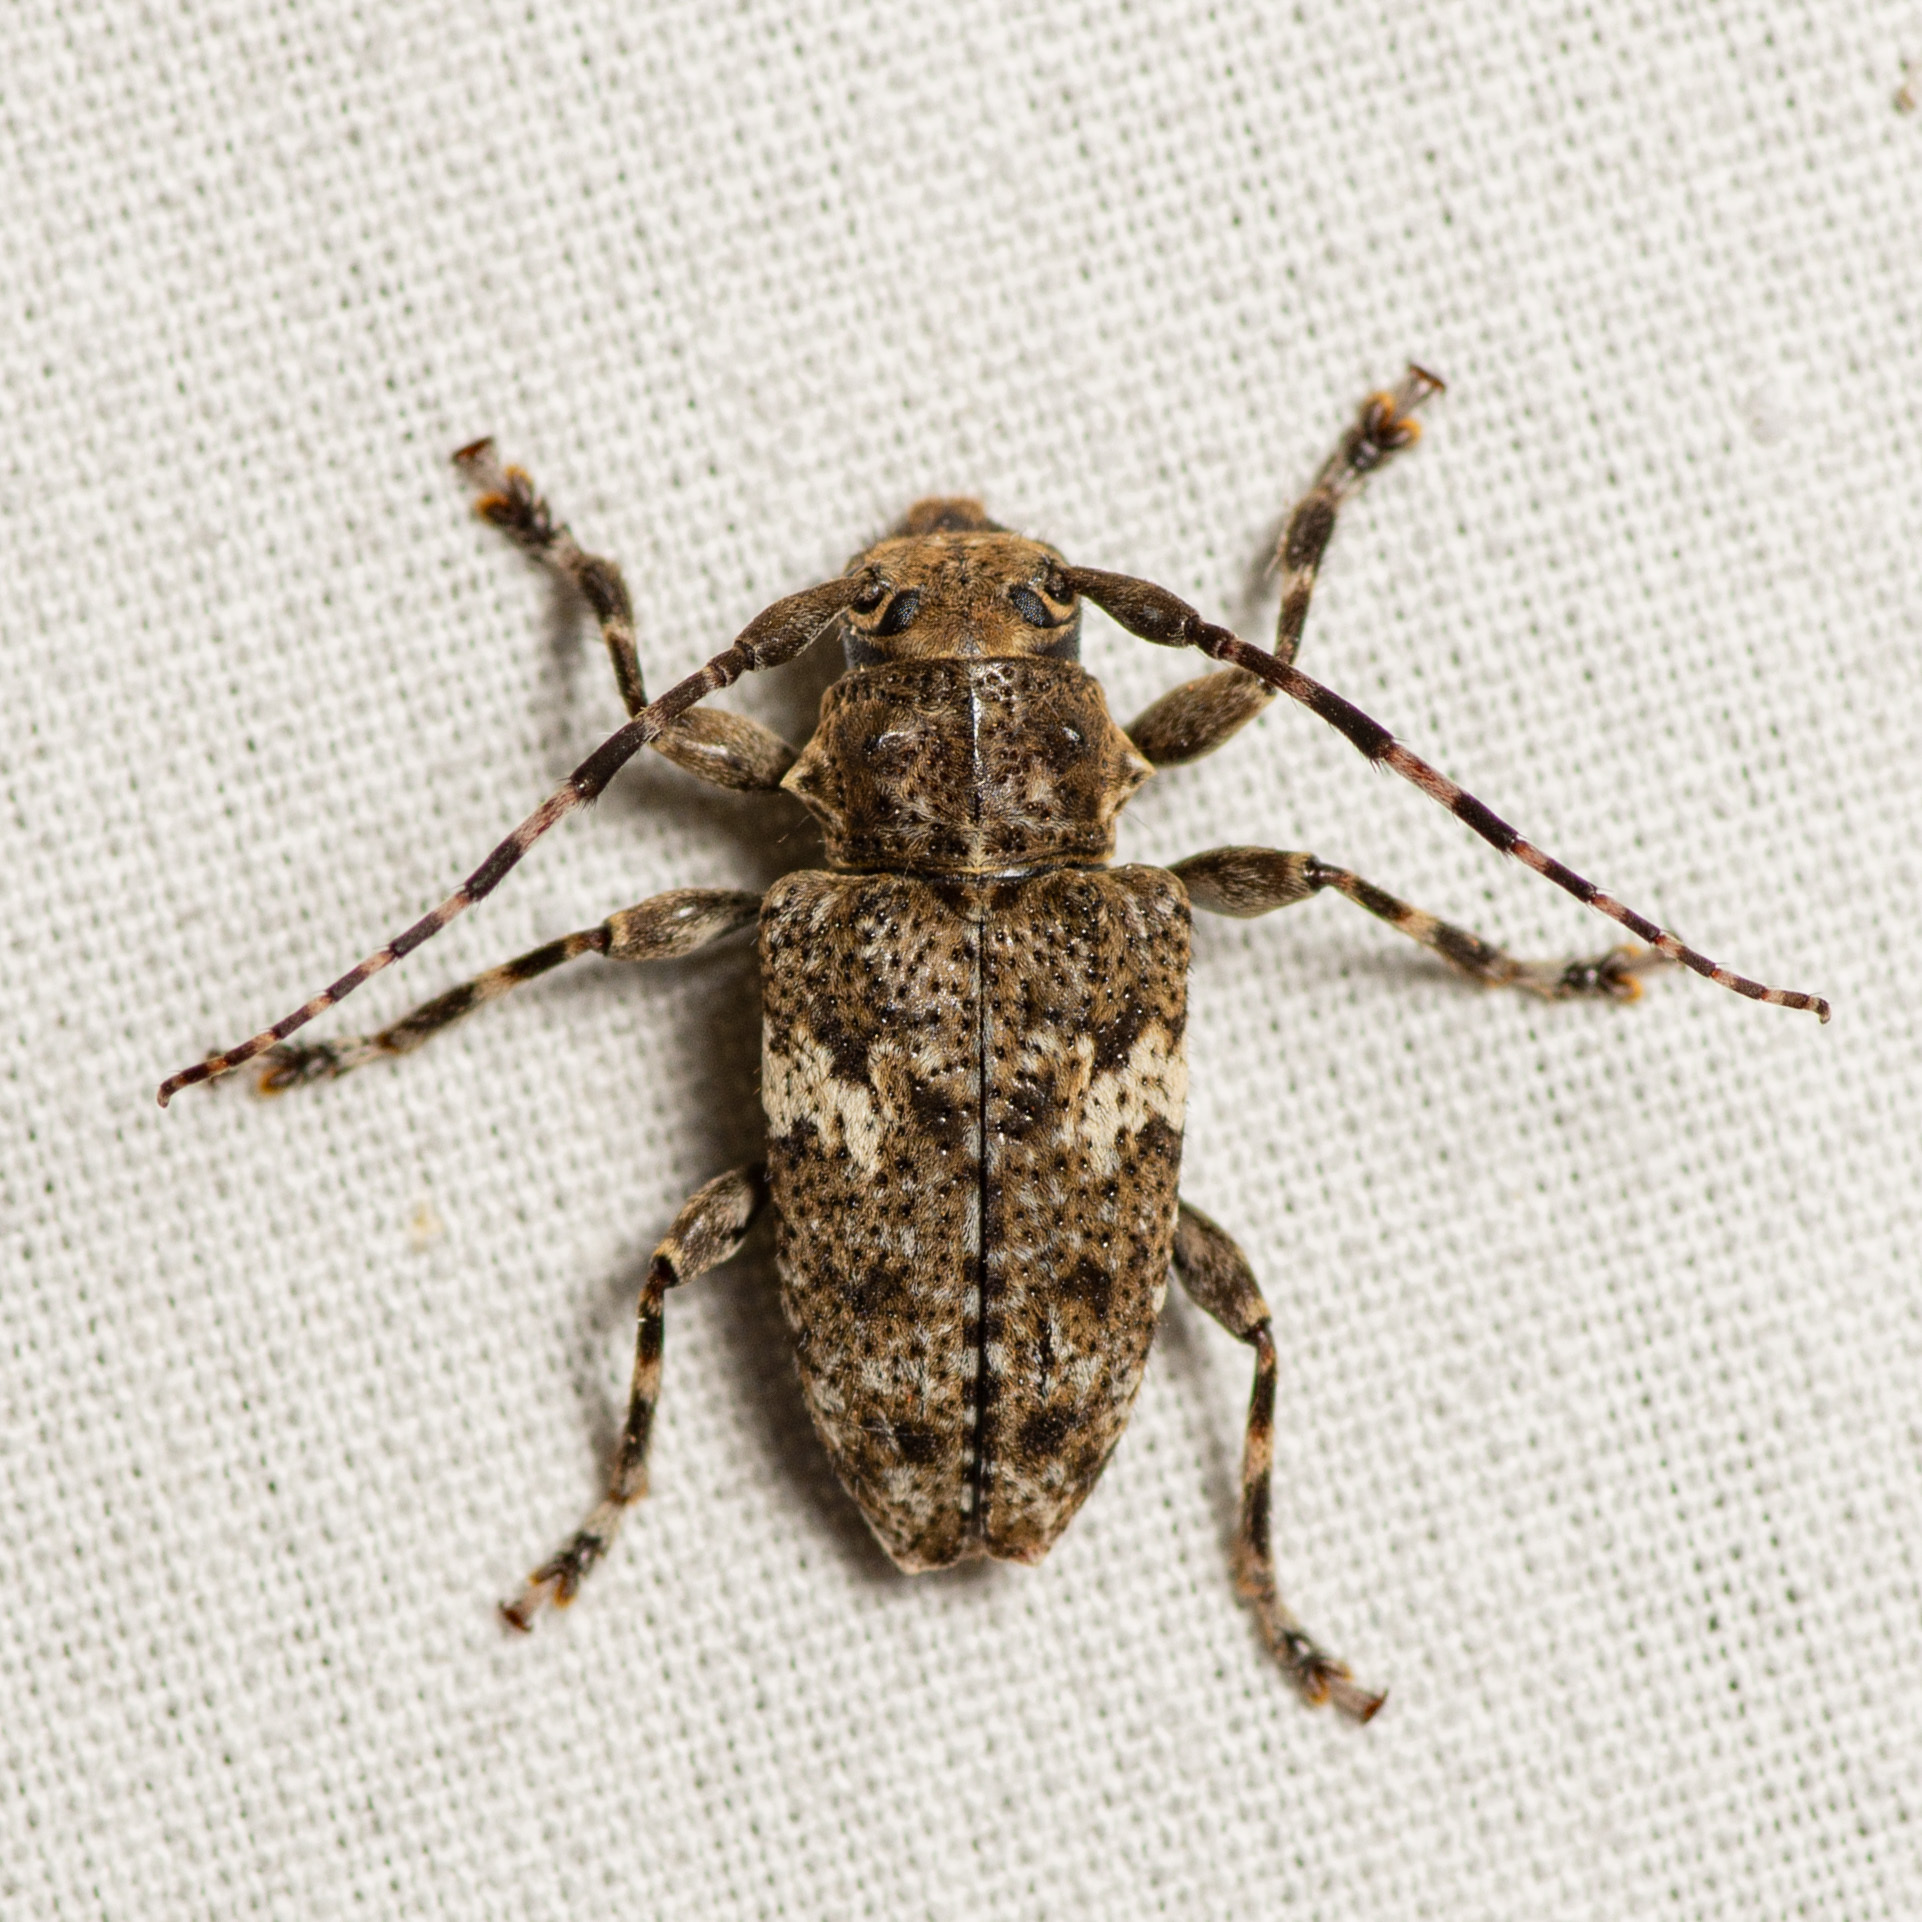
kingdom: Animalia
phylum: Arthropoda
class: Insecta
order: Coleoptera
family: Cerambycidae
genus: Acanthoderes
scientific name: Acanthoderes quadrigibba
